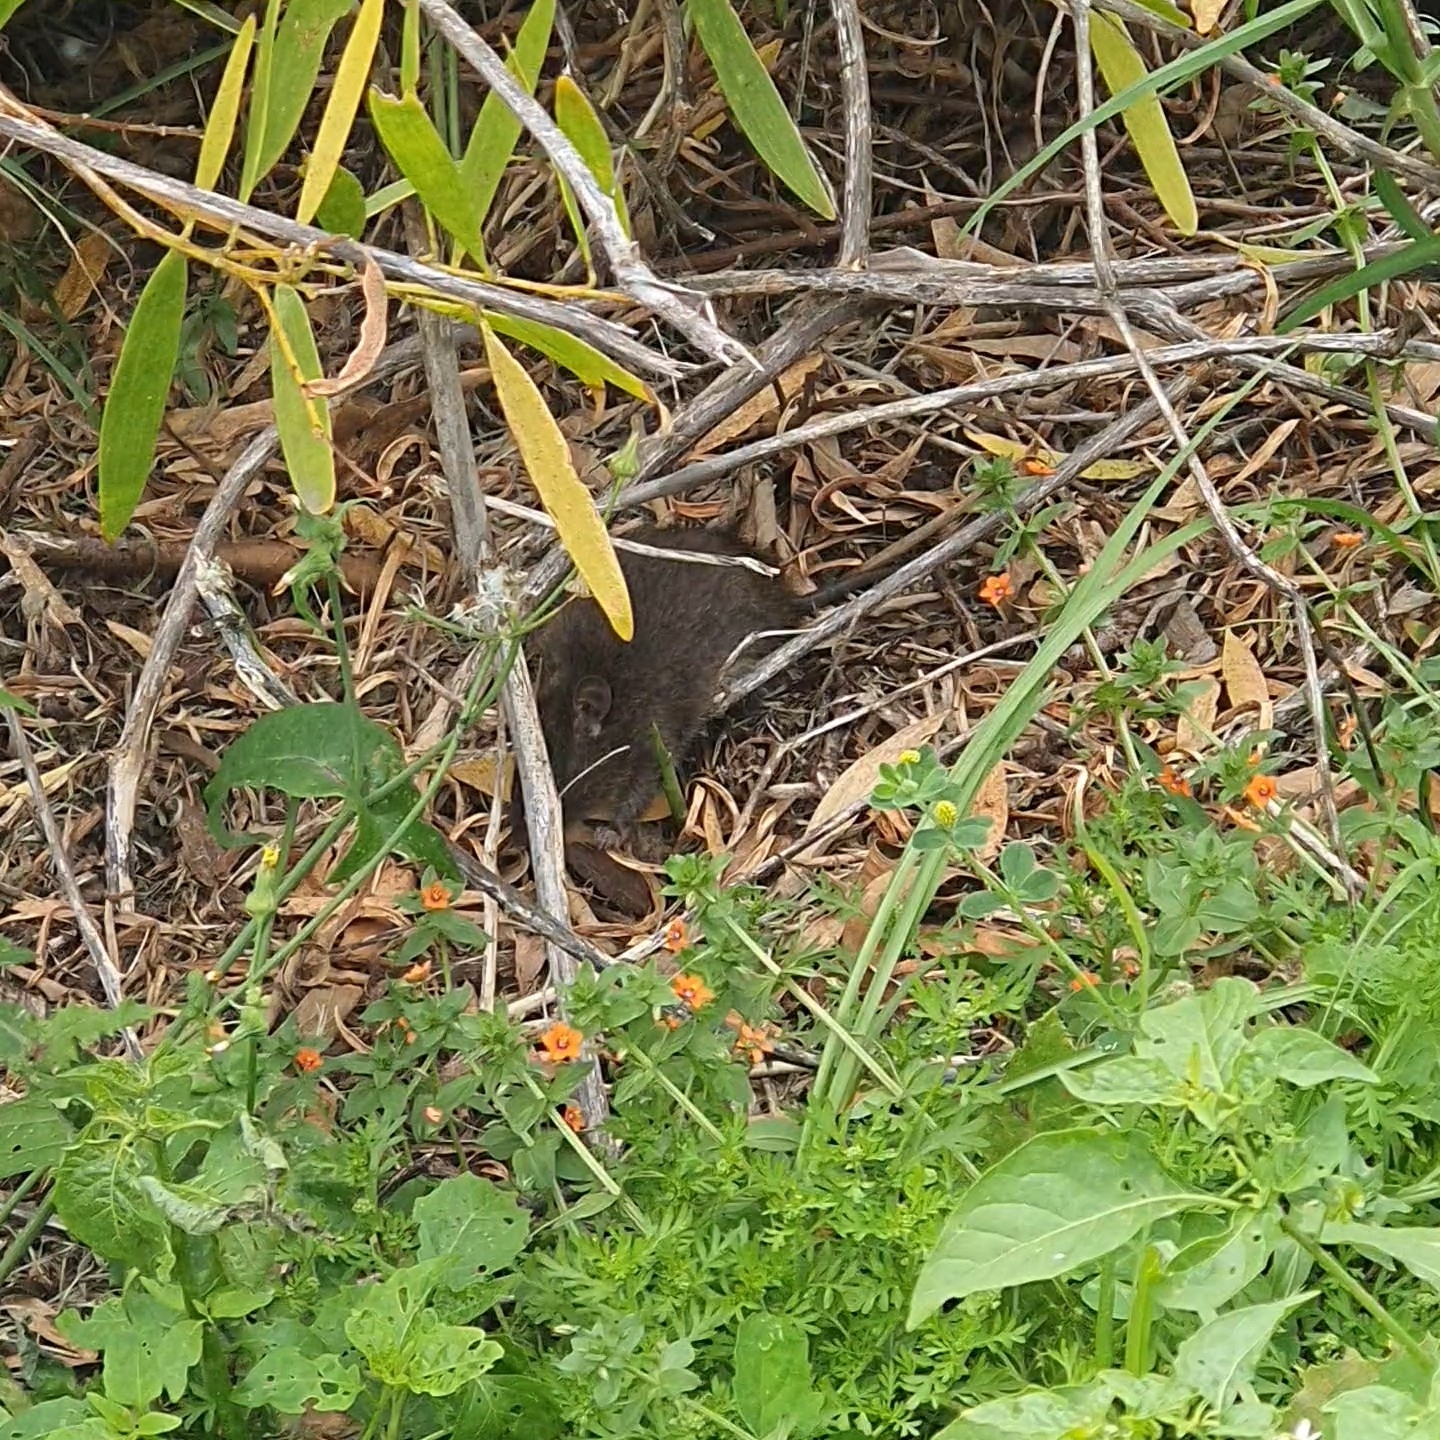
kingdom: Animalia
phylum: Chordata
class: Mammalia
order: Rodentia
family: Muridae
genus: Rattus
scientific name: Rattus lutreolus
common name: Australian swamp rat
